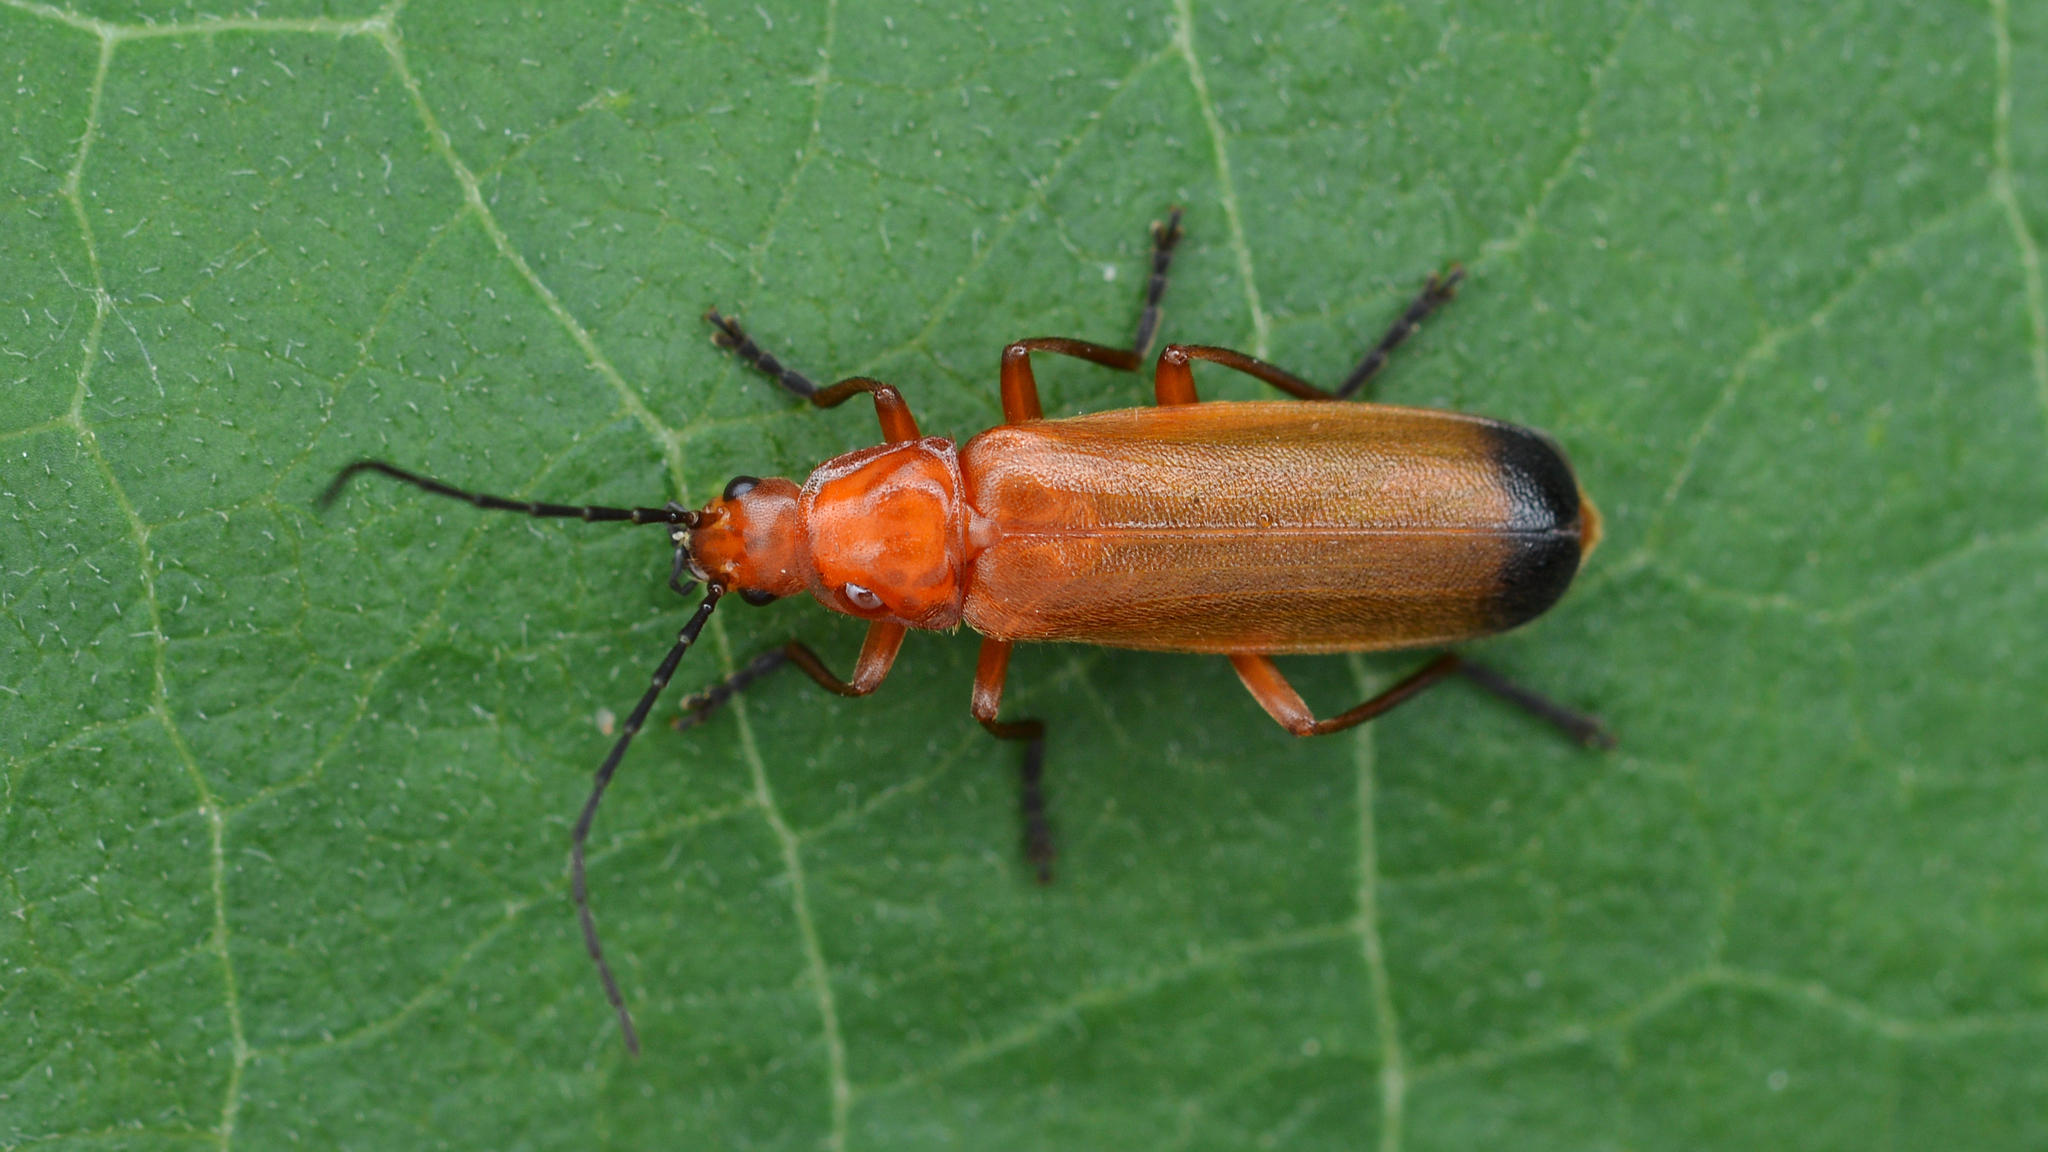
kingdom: Animalia
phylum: Arthropoda
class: Insecta
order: Coleoptera
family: Cantharidae
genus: Rhagonycha
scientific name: Rhagonycha fulva
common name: Common red soldier beetle
